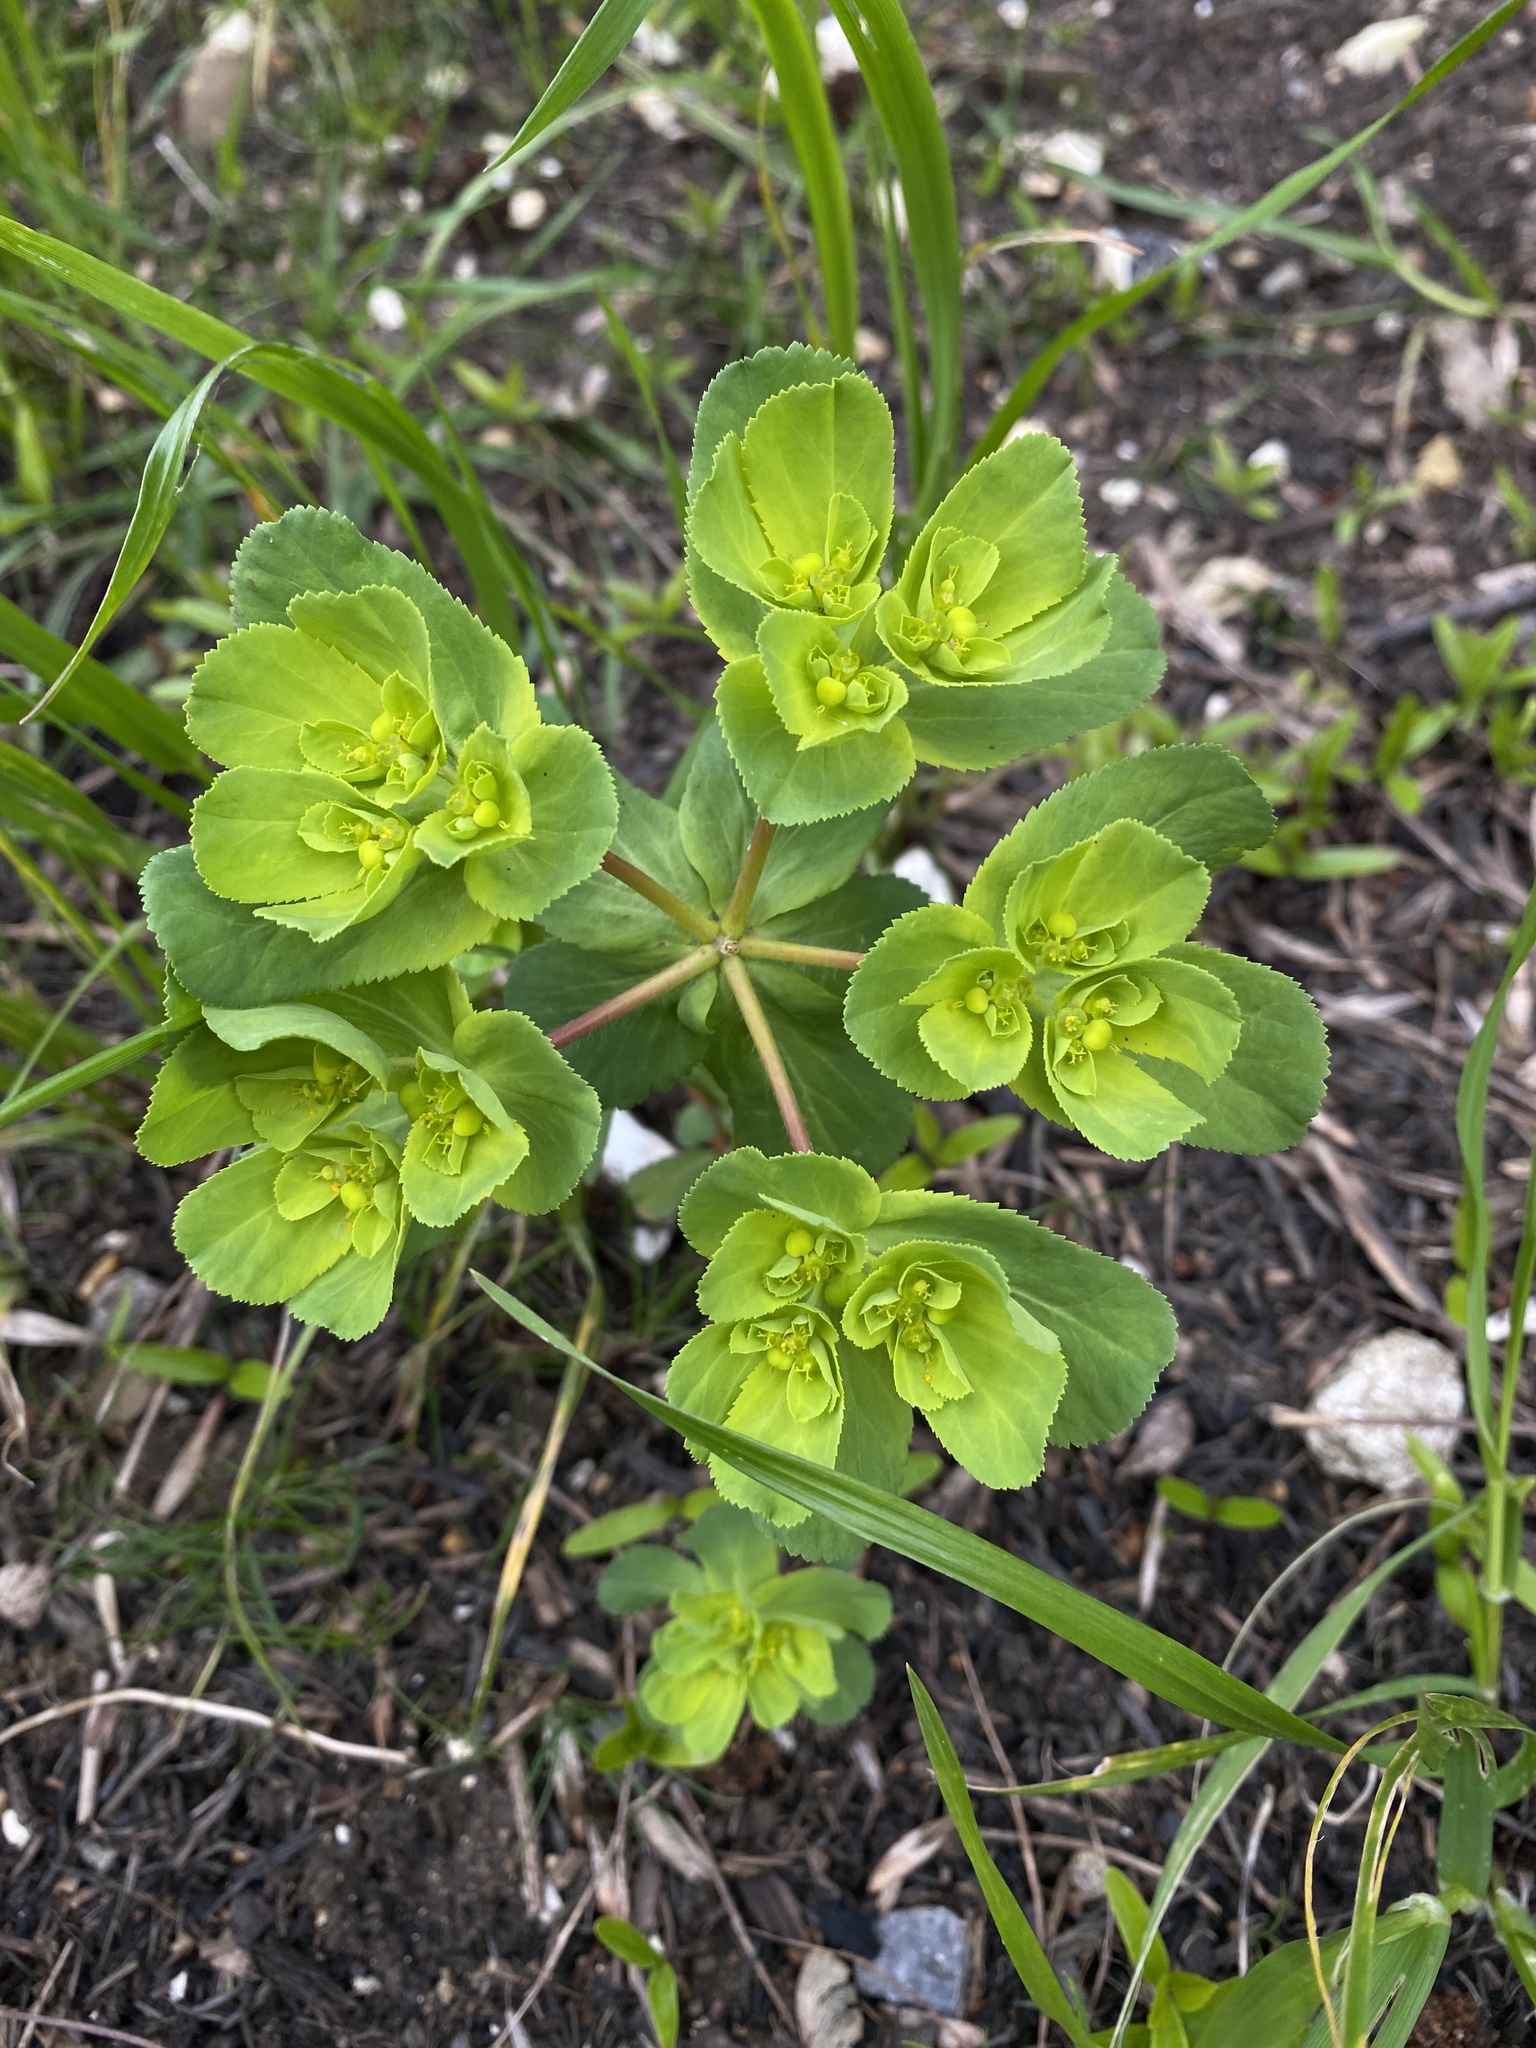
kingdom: Plantae
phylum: Tracheophyta
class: Magnoliopsida
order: Malpighiales
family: Euphorbiaceae
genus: Euphorbia
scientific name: Euphorbia helioscopia
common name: Sun spurge
